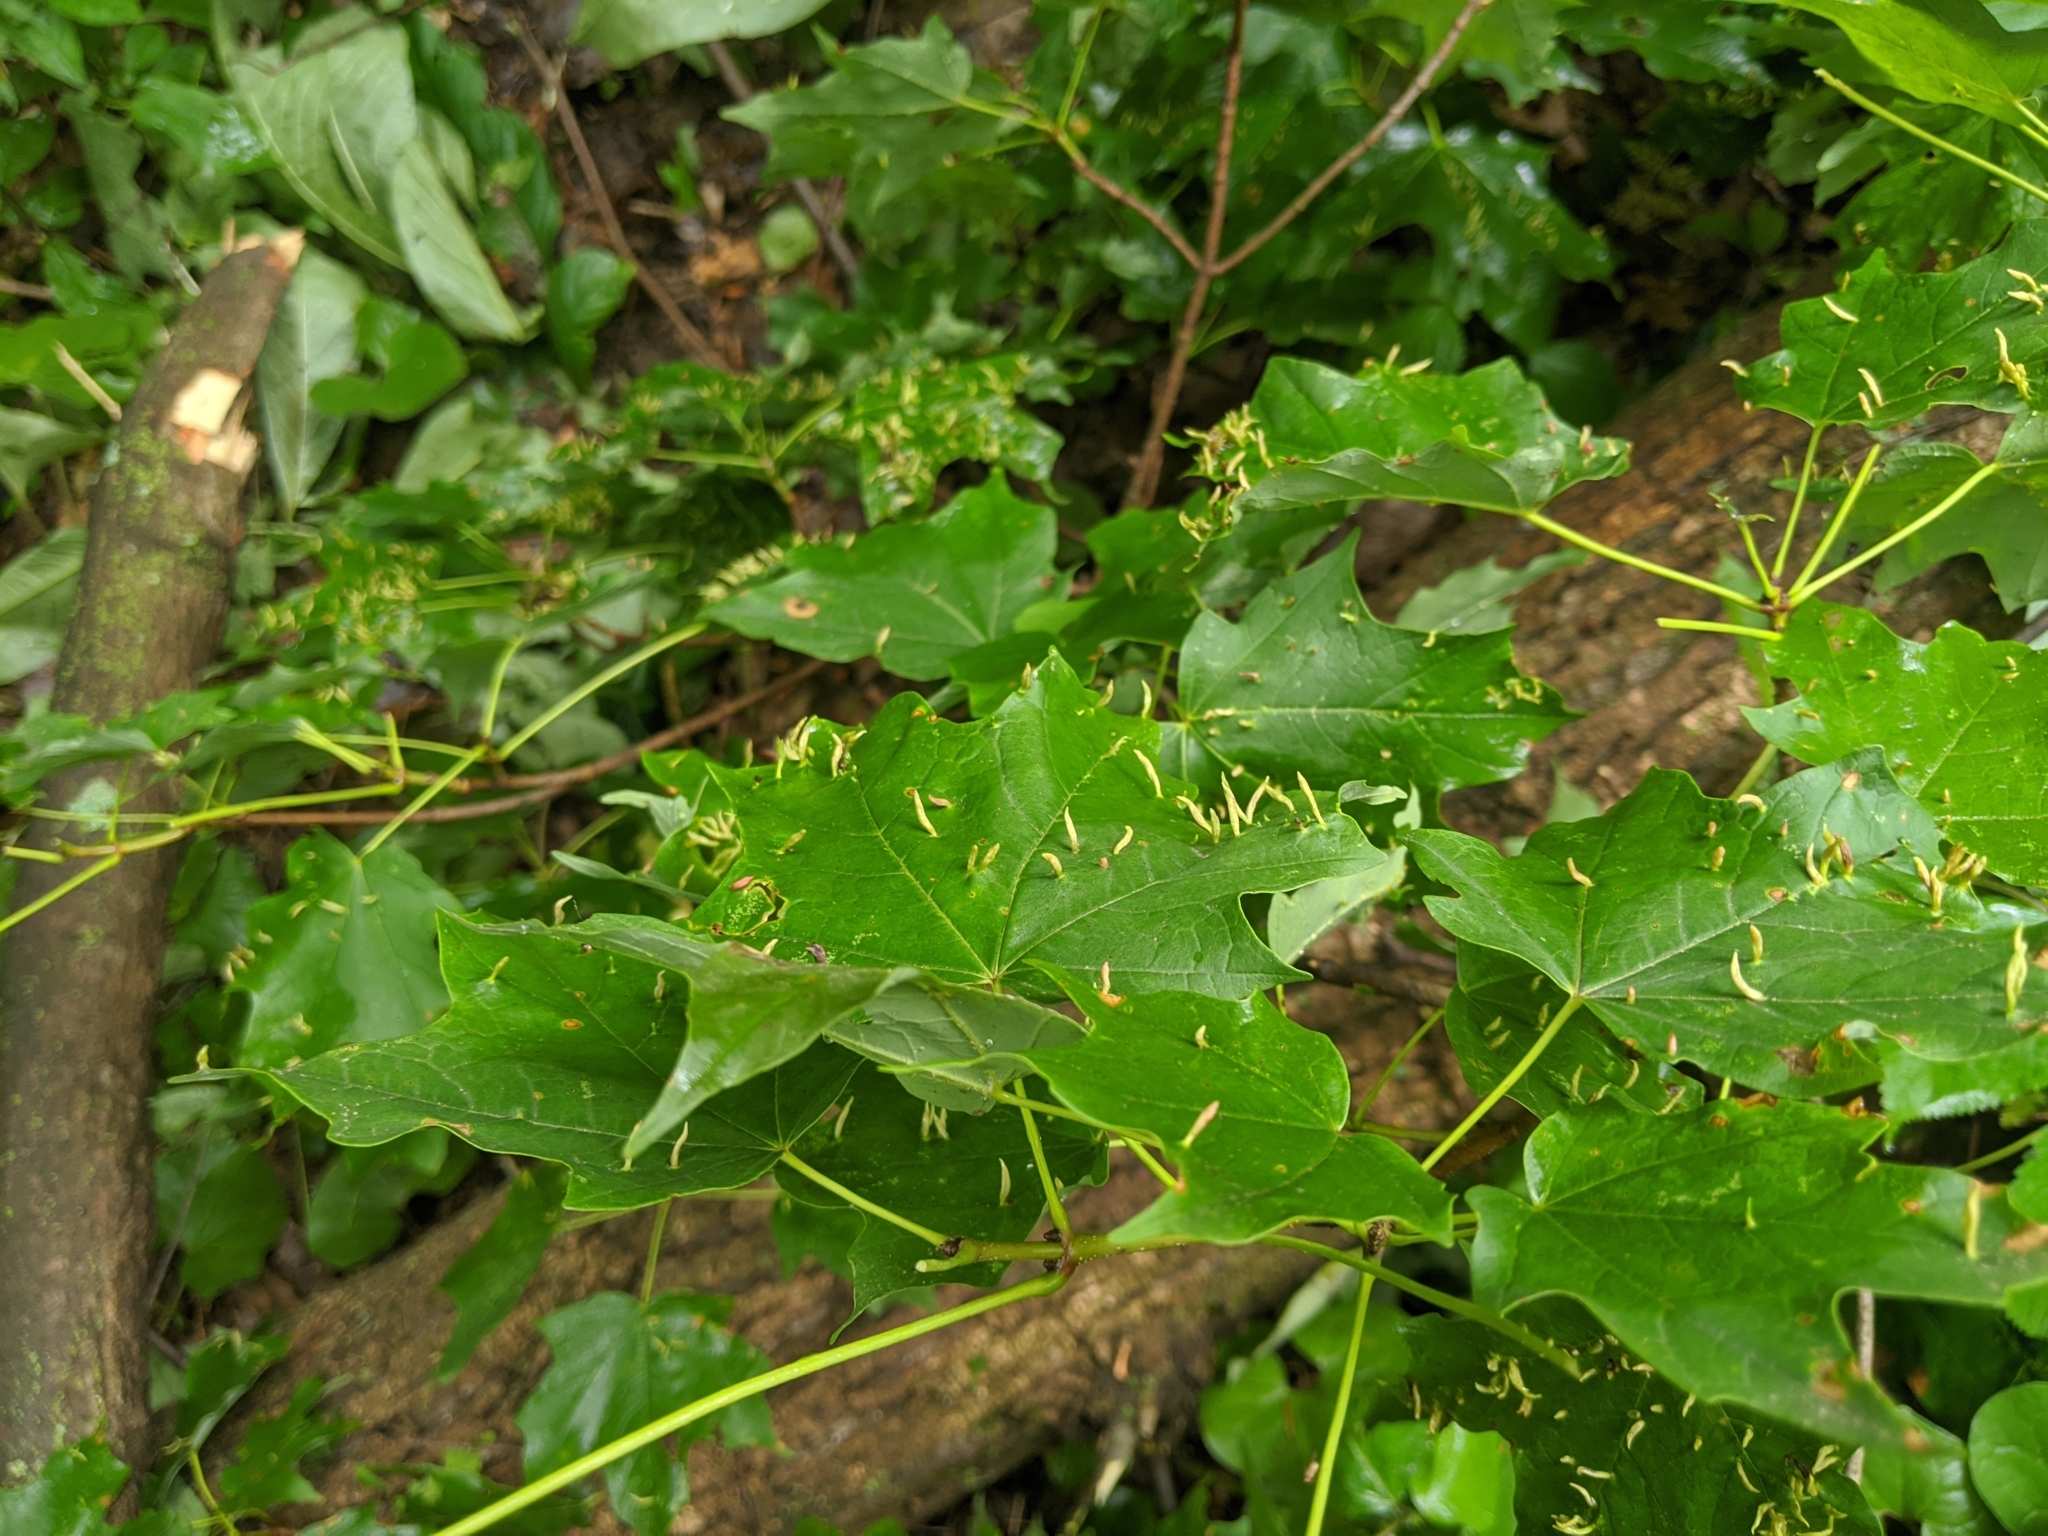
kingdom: Animalia
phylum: Arthropoda
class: Arachnida
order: Trombidiformes
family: Eriophyidae
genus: Vasates
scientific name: Vasates aceriscrumena
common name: Maple spindle gall mite
